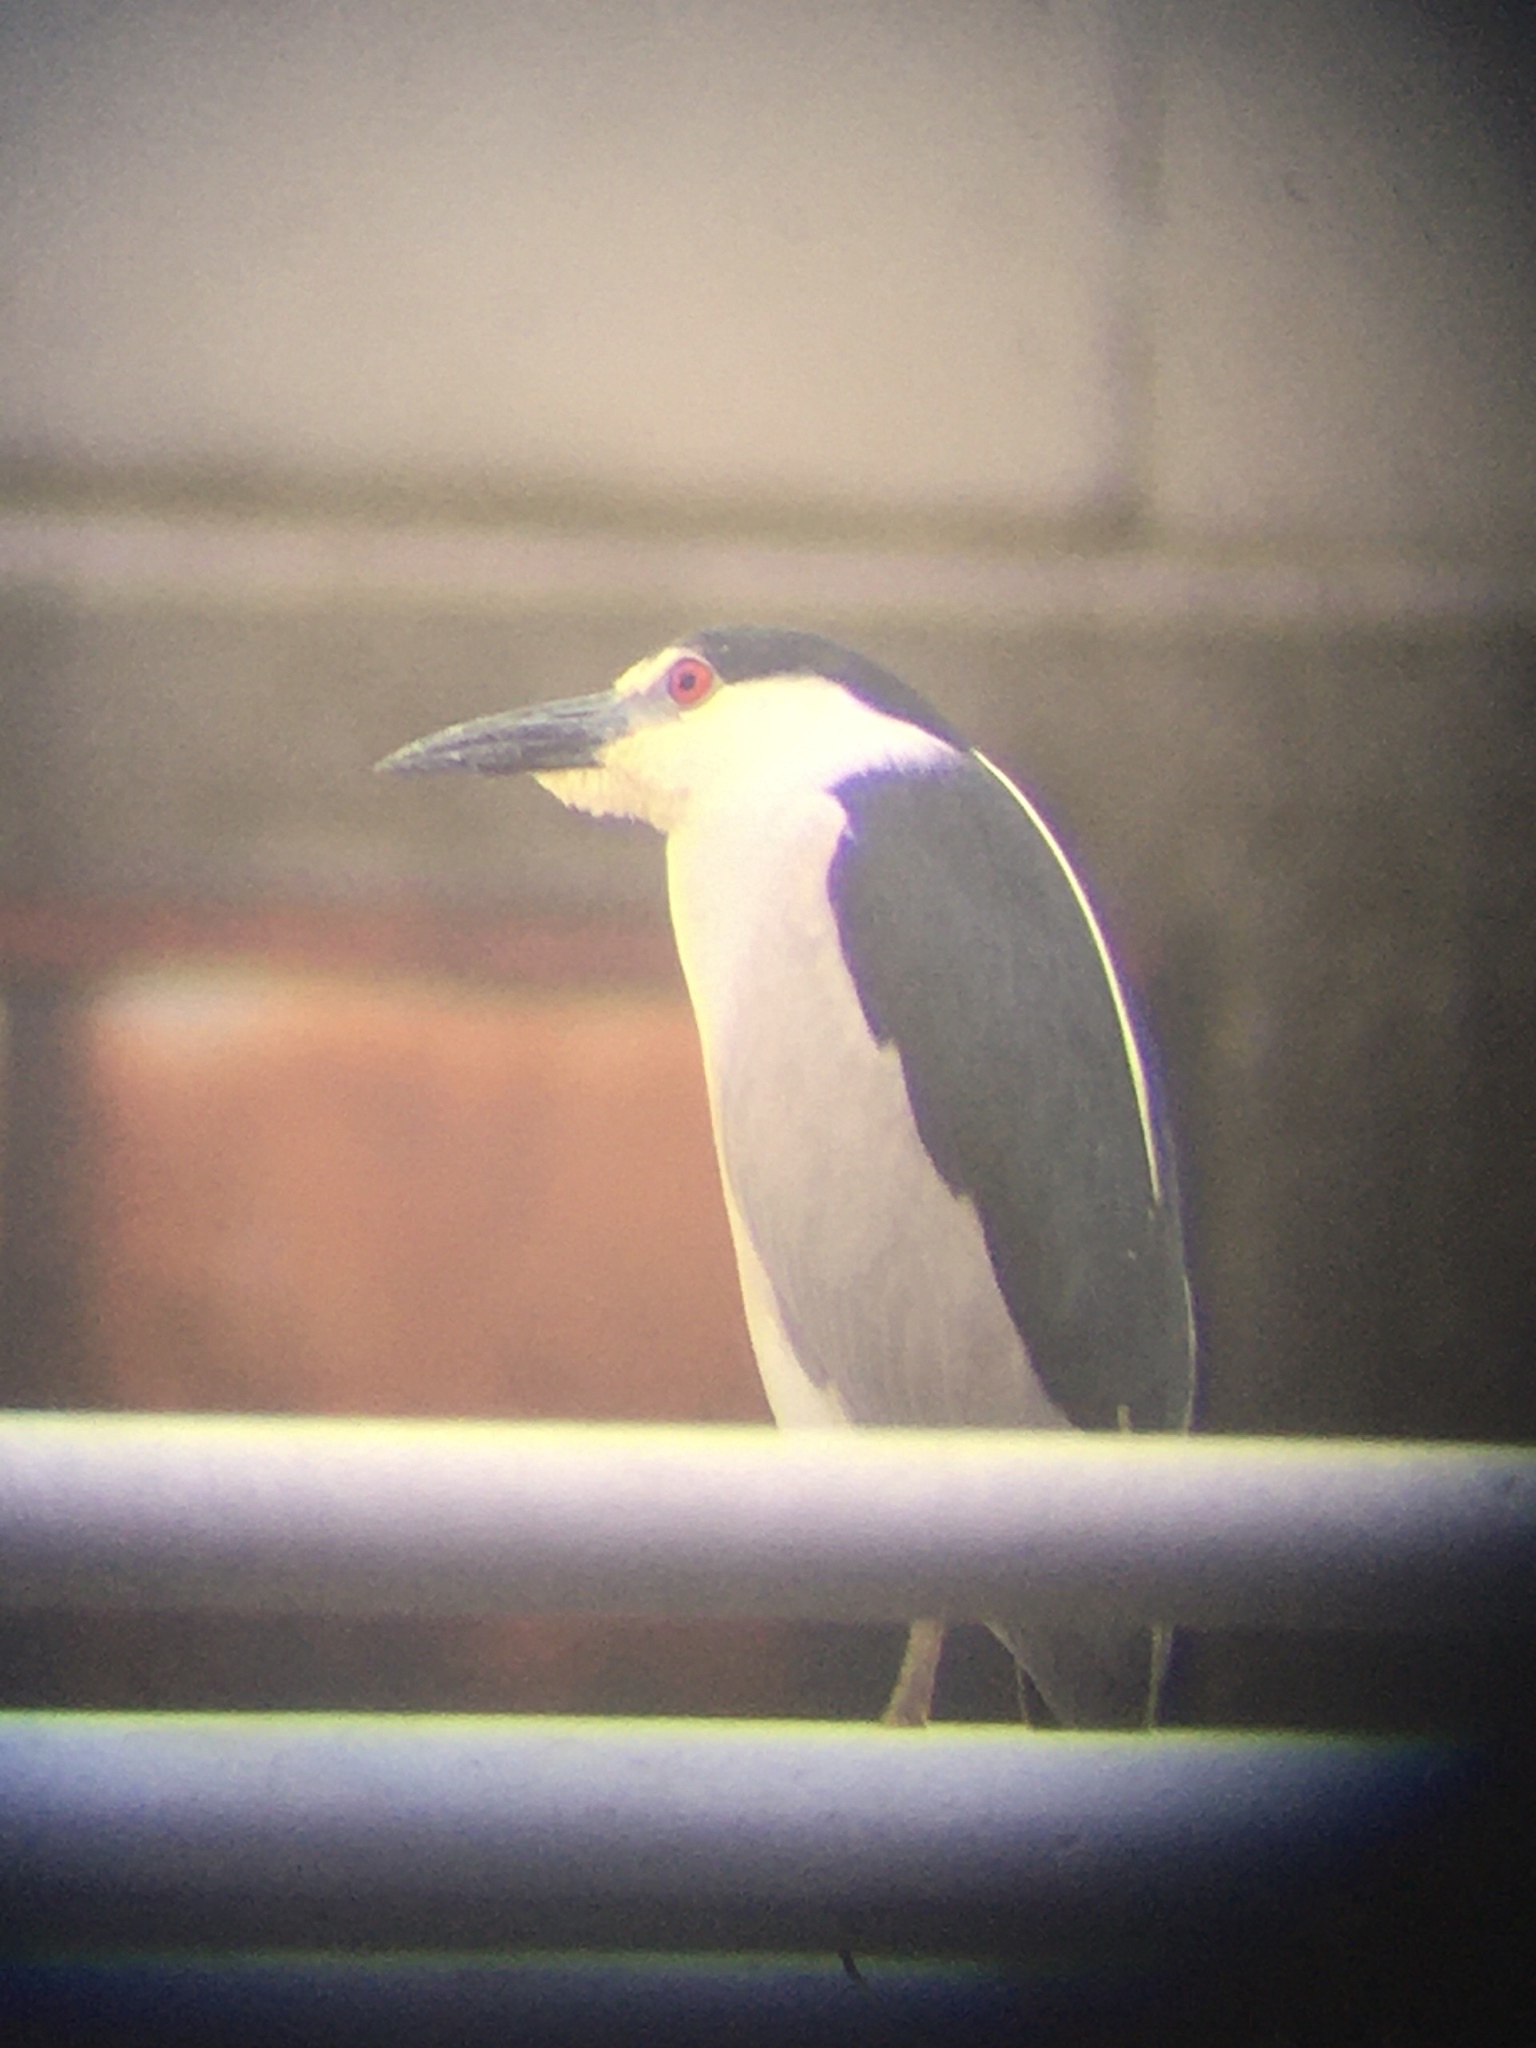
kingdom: Animalia
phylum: Chordata
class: Aves
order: Pelecaniformes
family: Ardeidae
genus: Nycticorax
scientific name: Nycticorax nycticorax
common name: Black-crowned night heron
